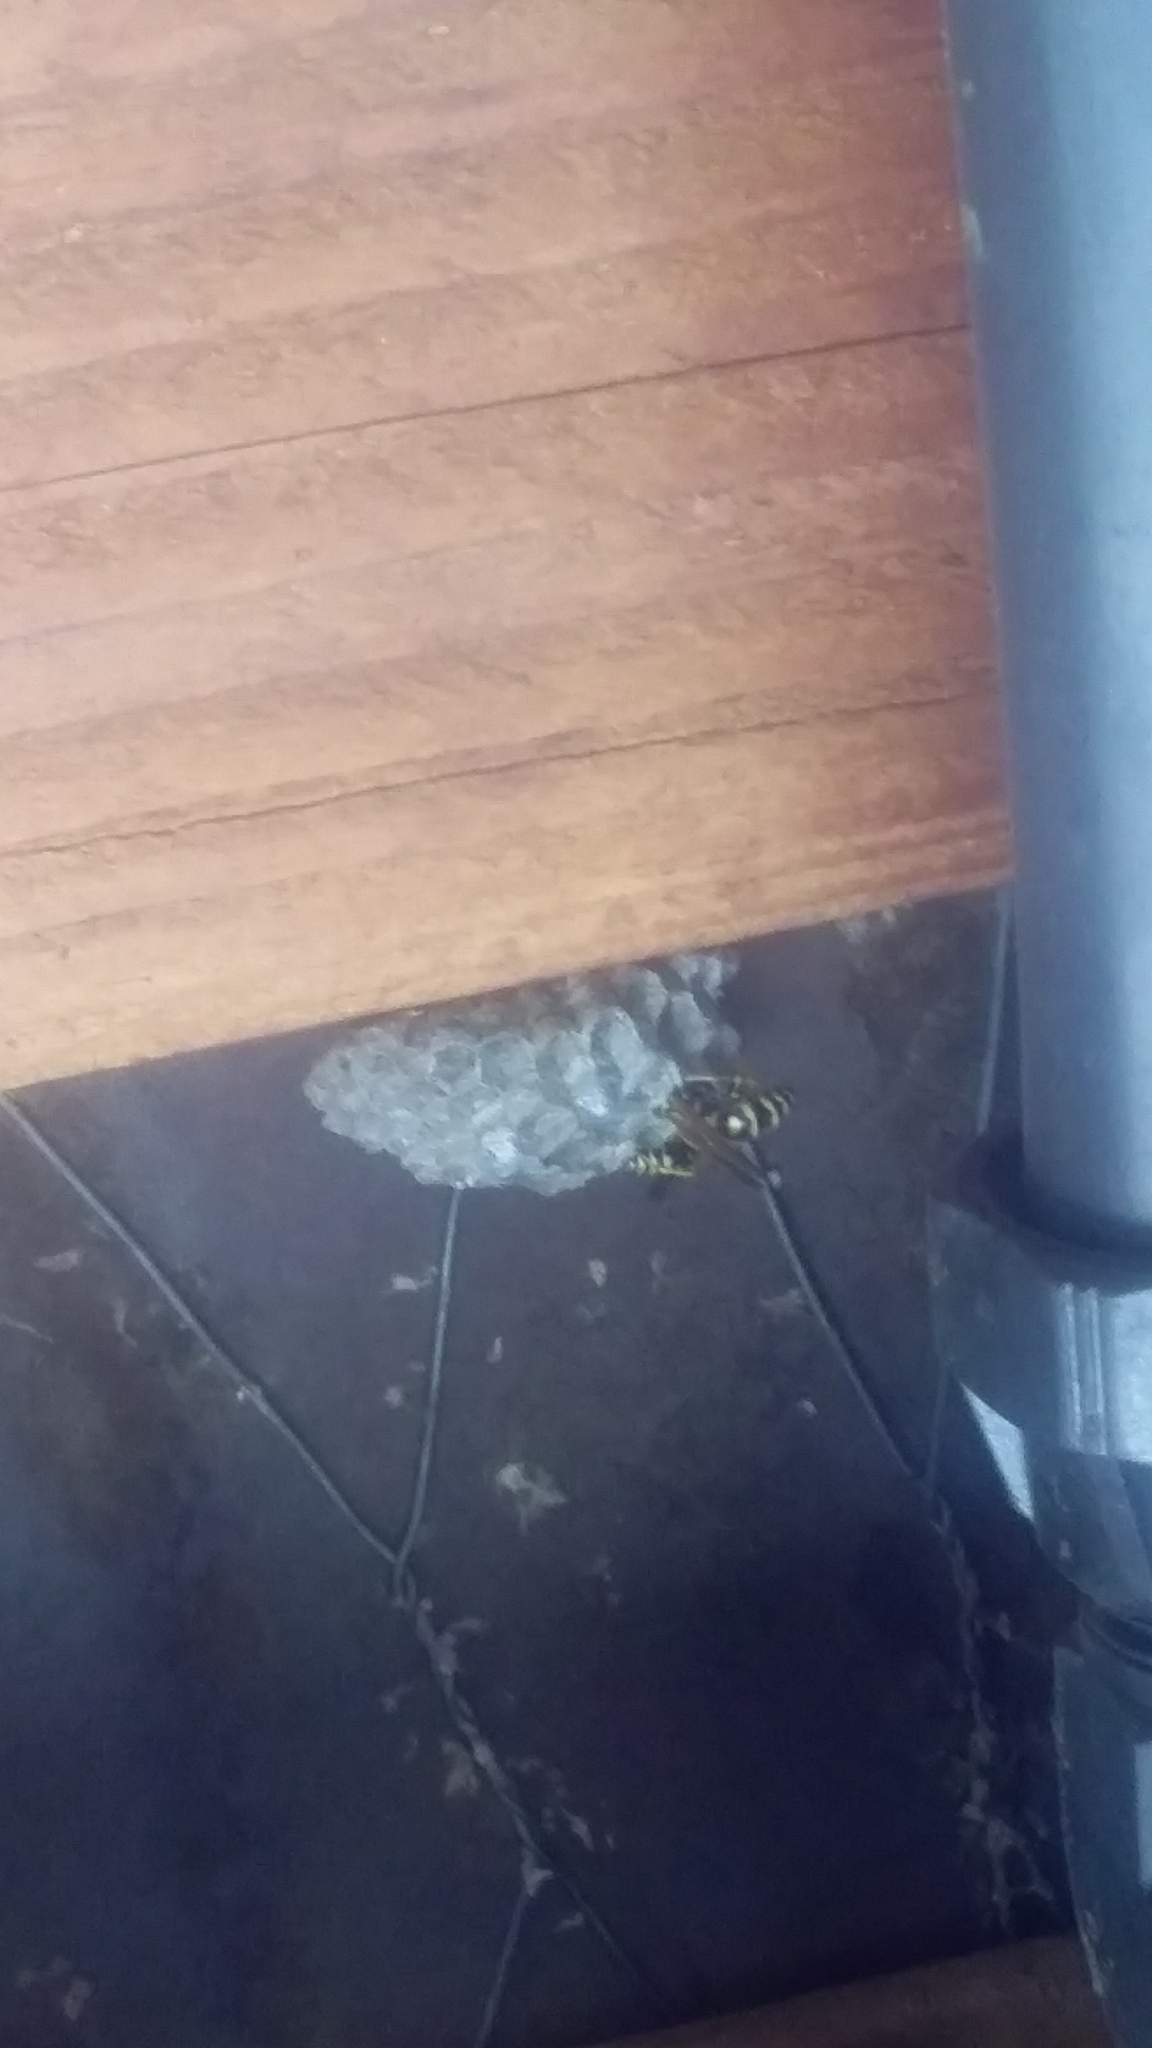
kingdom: Animalia
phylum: Arthropoda
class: Insecta
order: Hymenoptera
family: Eumenidae
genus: Polistes
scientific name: Polistes dominula
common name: Paper wasp
